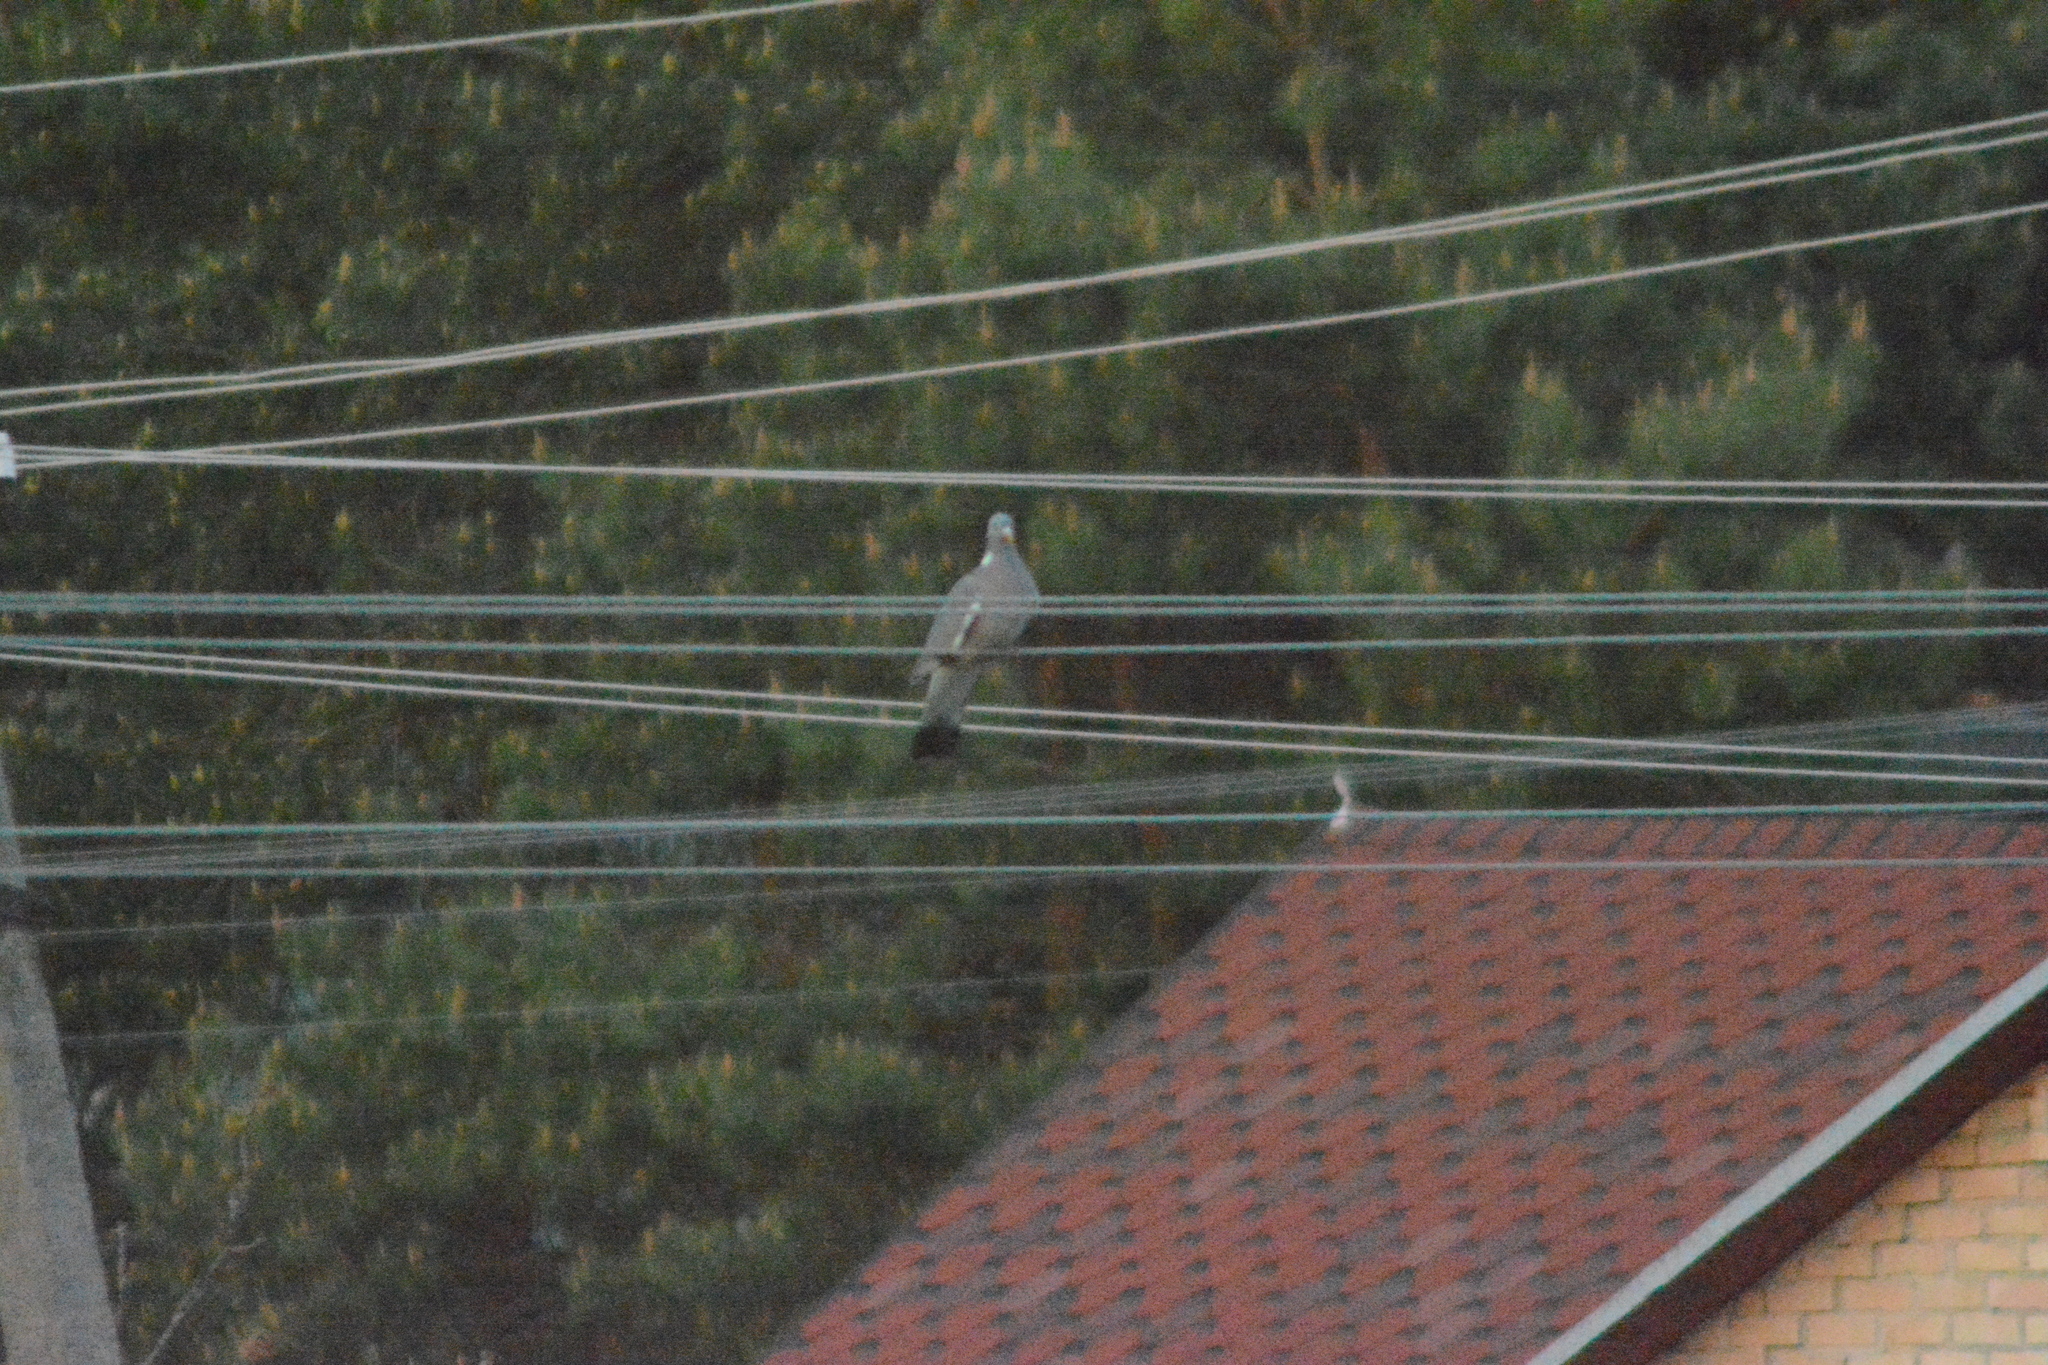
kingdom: Animalia
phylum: Chordata
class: Aves
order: Columbiformes
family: Columbidae
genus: Columba
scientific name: Columba palumbus
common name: Common wood pigeon
